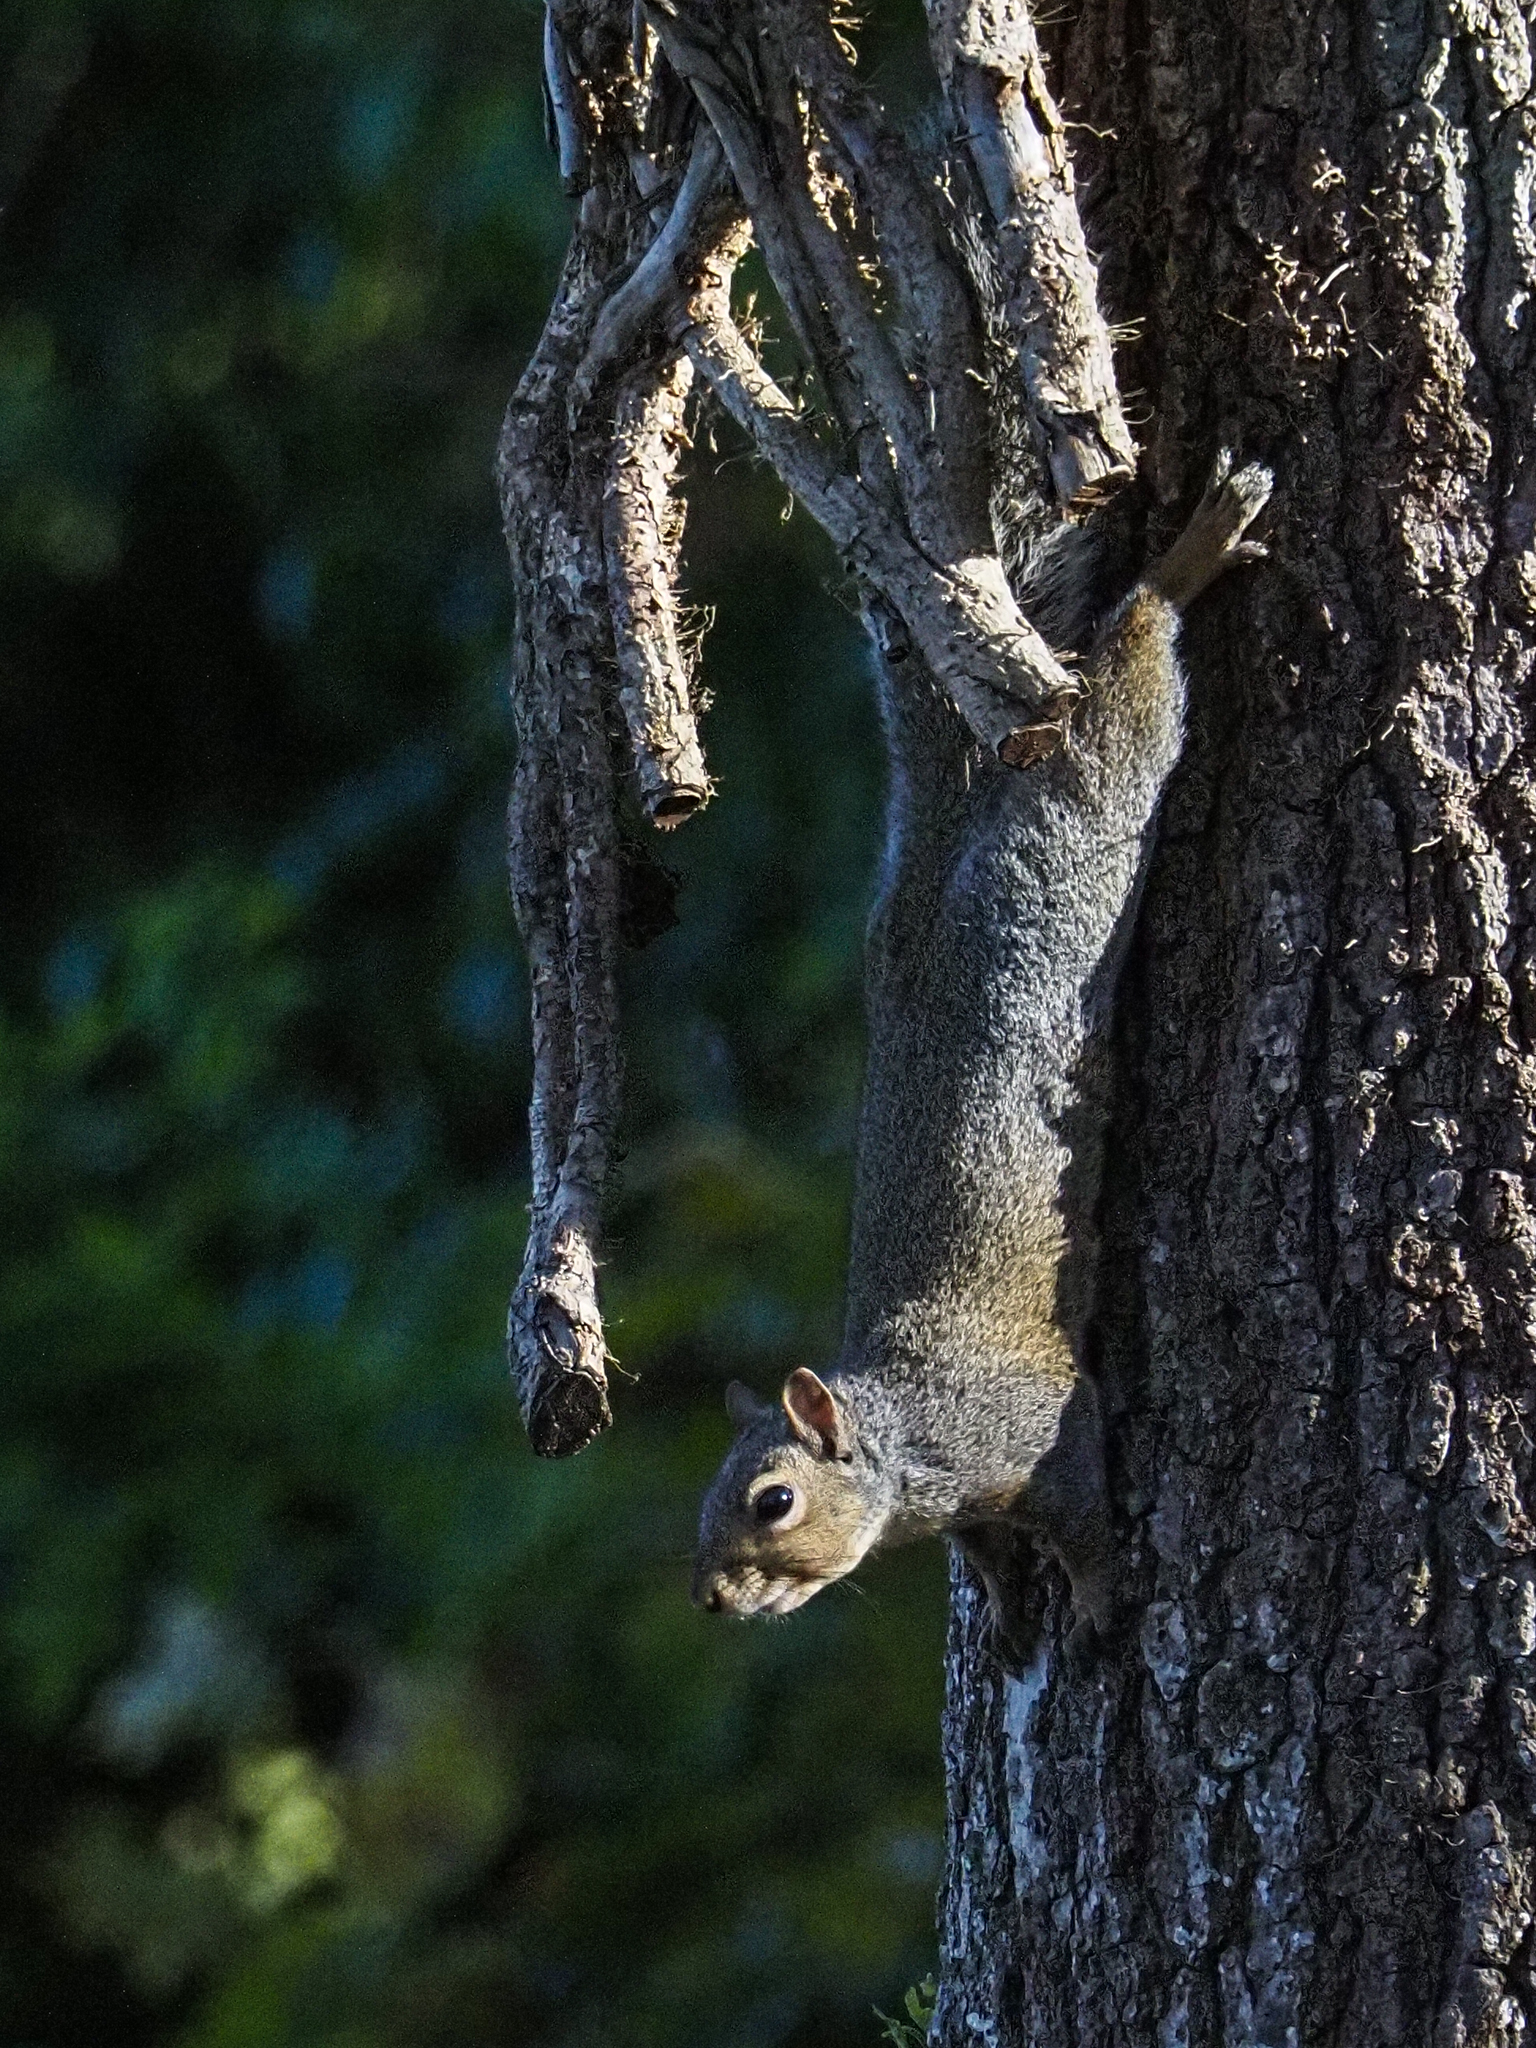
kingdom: Animalia
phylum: Chordata
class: Mammalia
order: Rodentia
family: Sciuridae
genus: Sciurus
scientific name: Sciurus carolinensis
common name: Eastern gray squirrel
